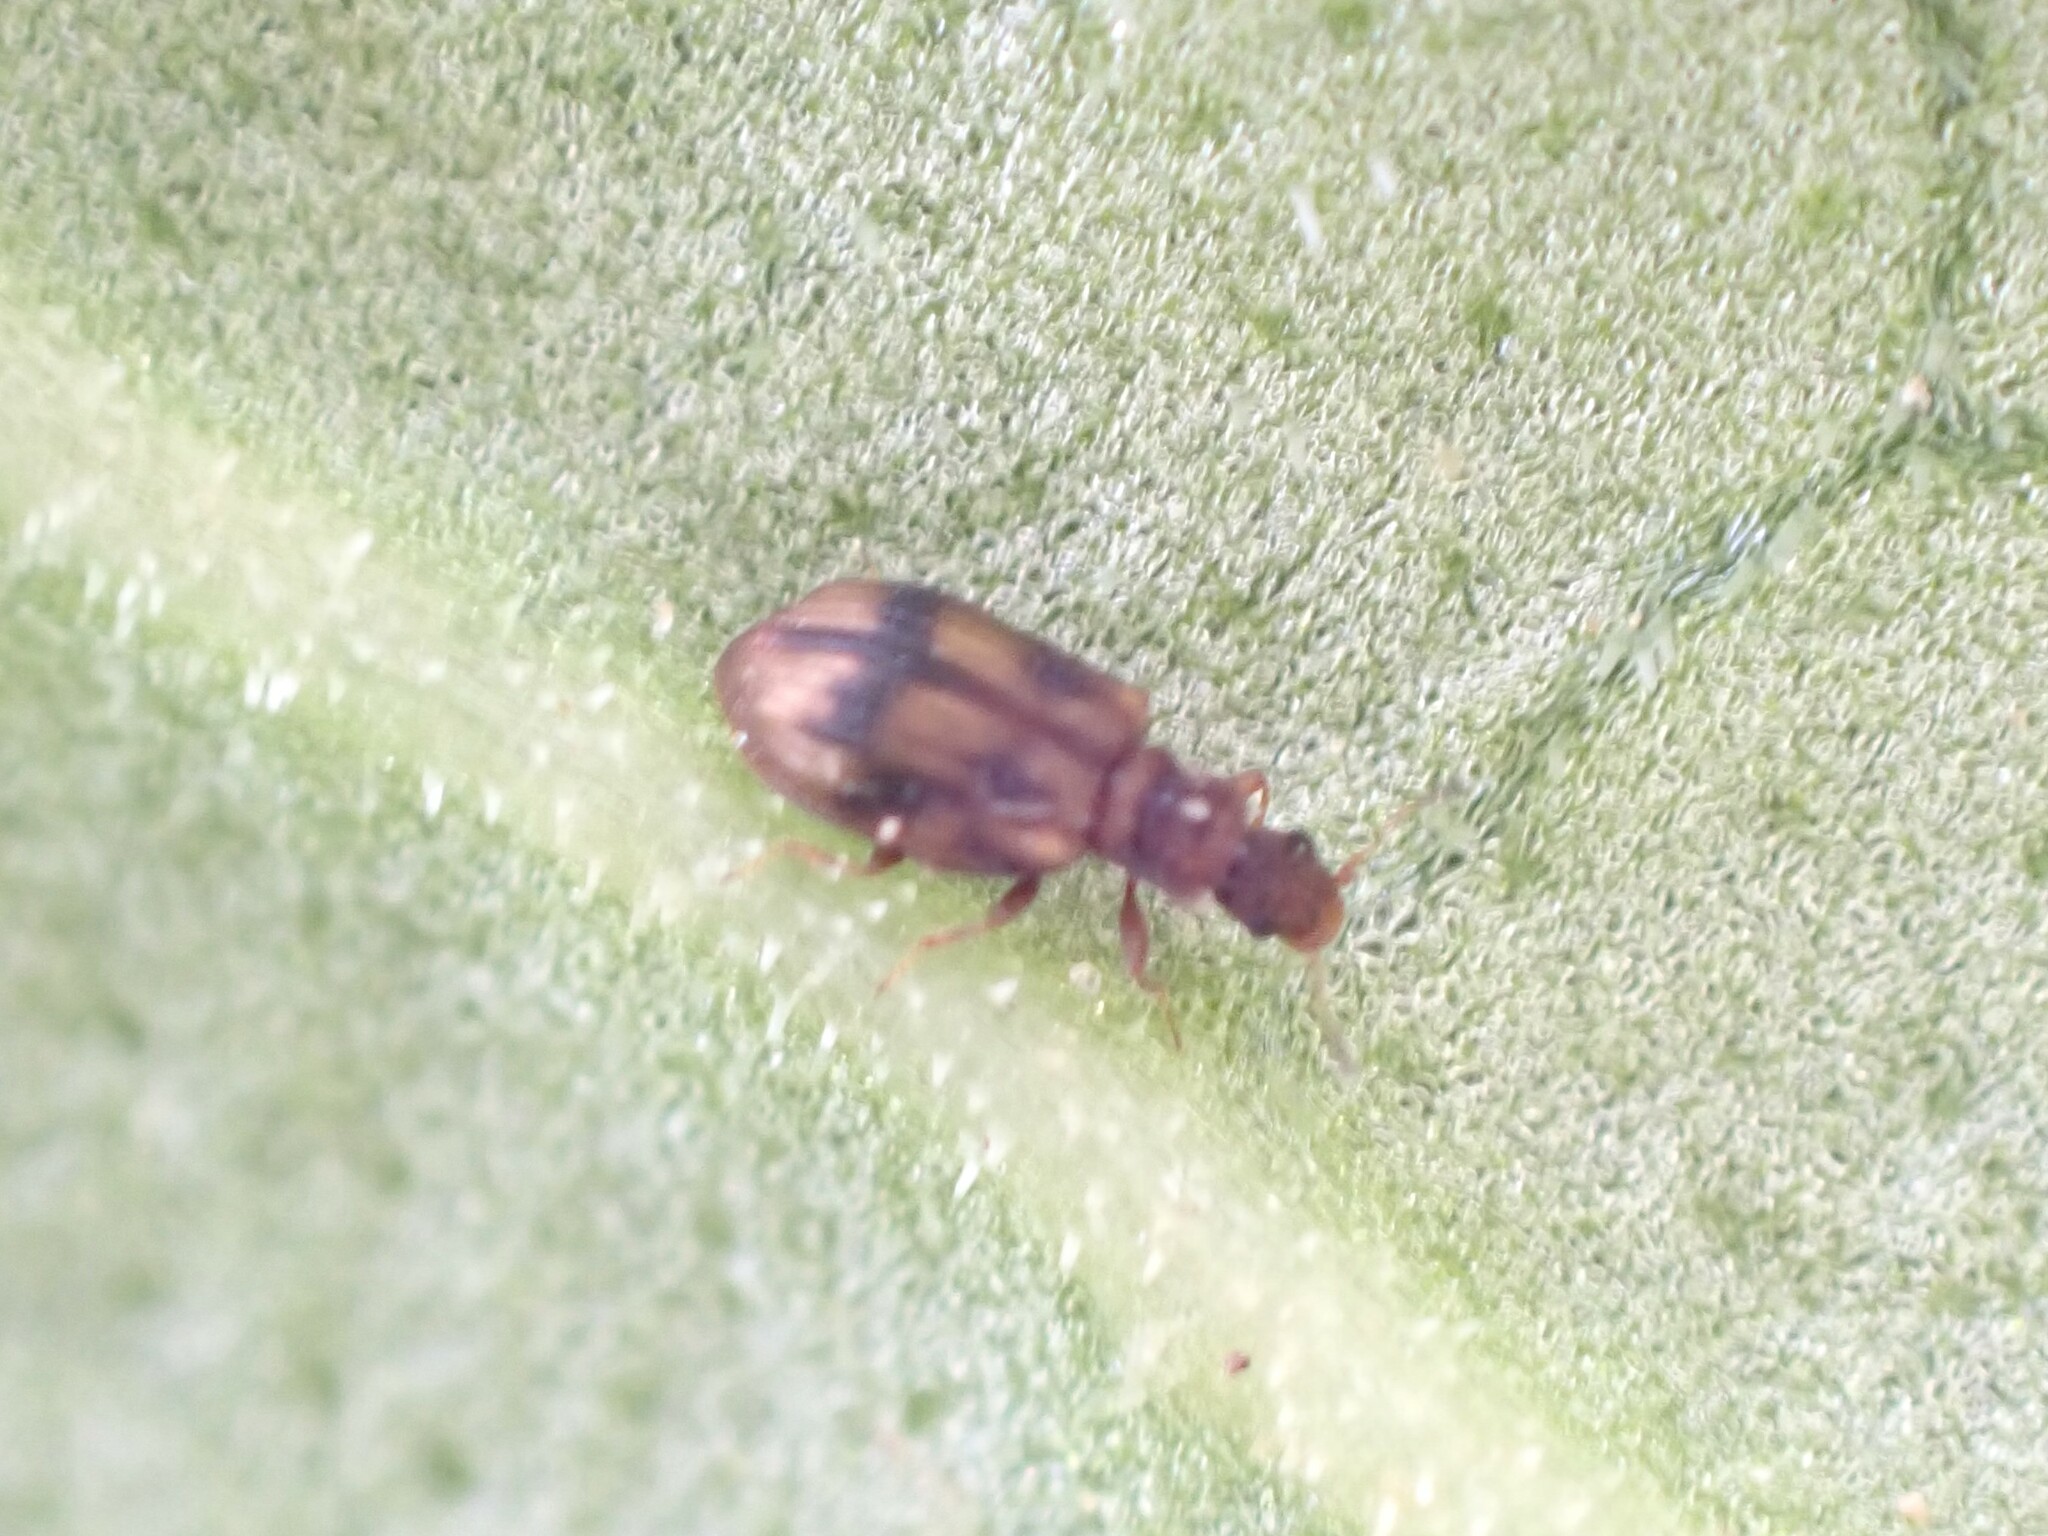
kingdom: Animalia
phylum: Arthropoda
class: Insecta
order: Coleoptera
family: Latridiidae
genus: Cartodere
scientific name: Cartodere bifasciata
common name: Plaster beetle
